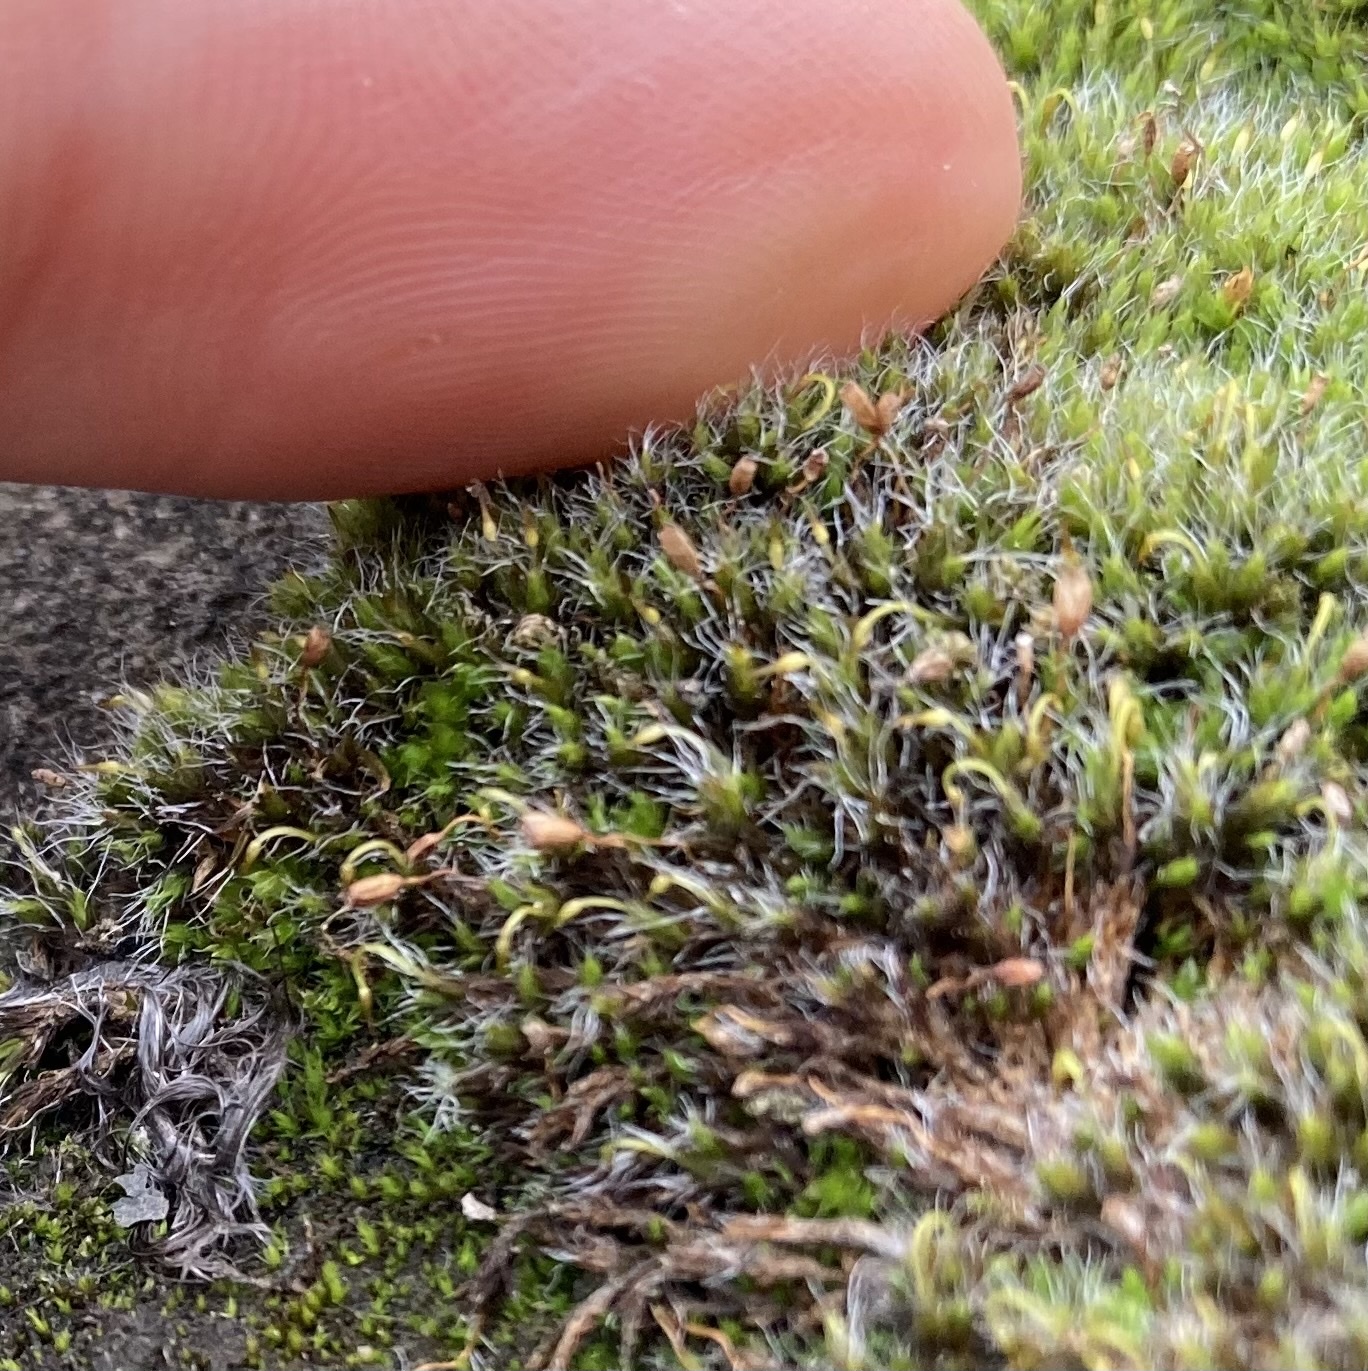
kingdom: Plantae
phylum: Bryophyta
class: Bryopsida
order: Grimmiales
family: Grimmiaceae
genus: Grimmia
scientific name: Grimmia pulvinata
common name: Grey-cushioned grimmia
